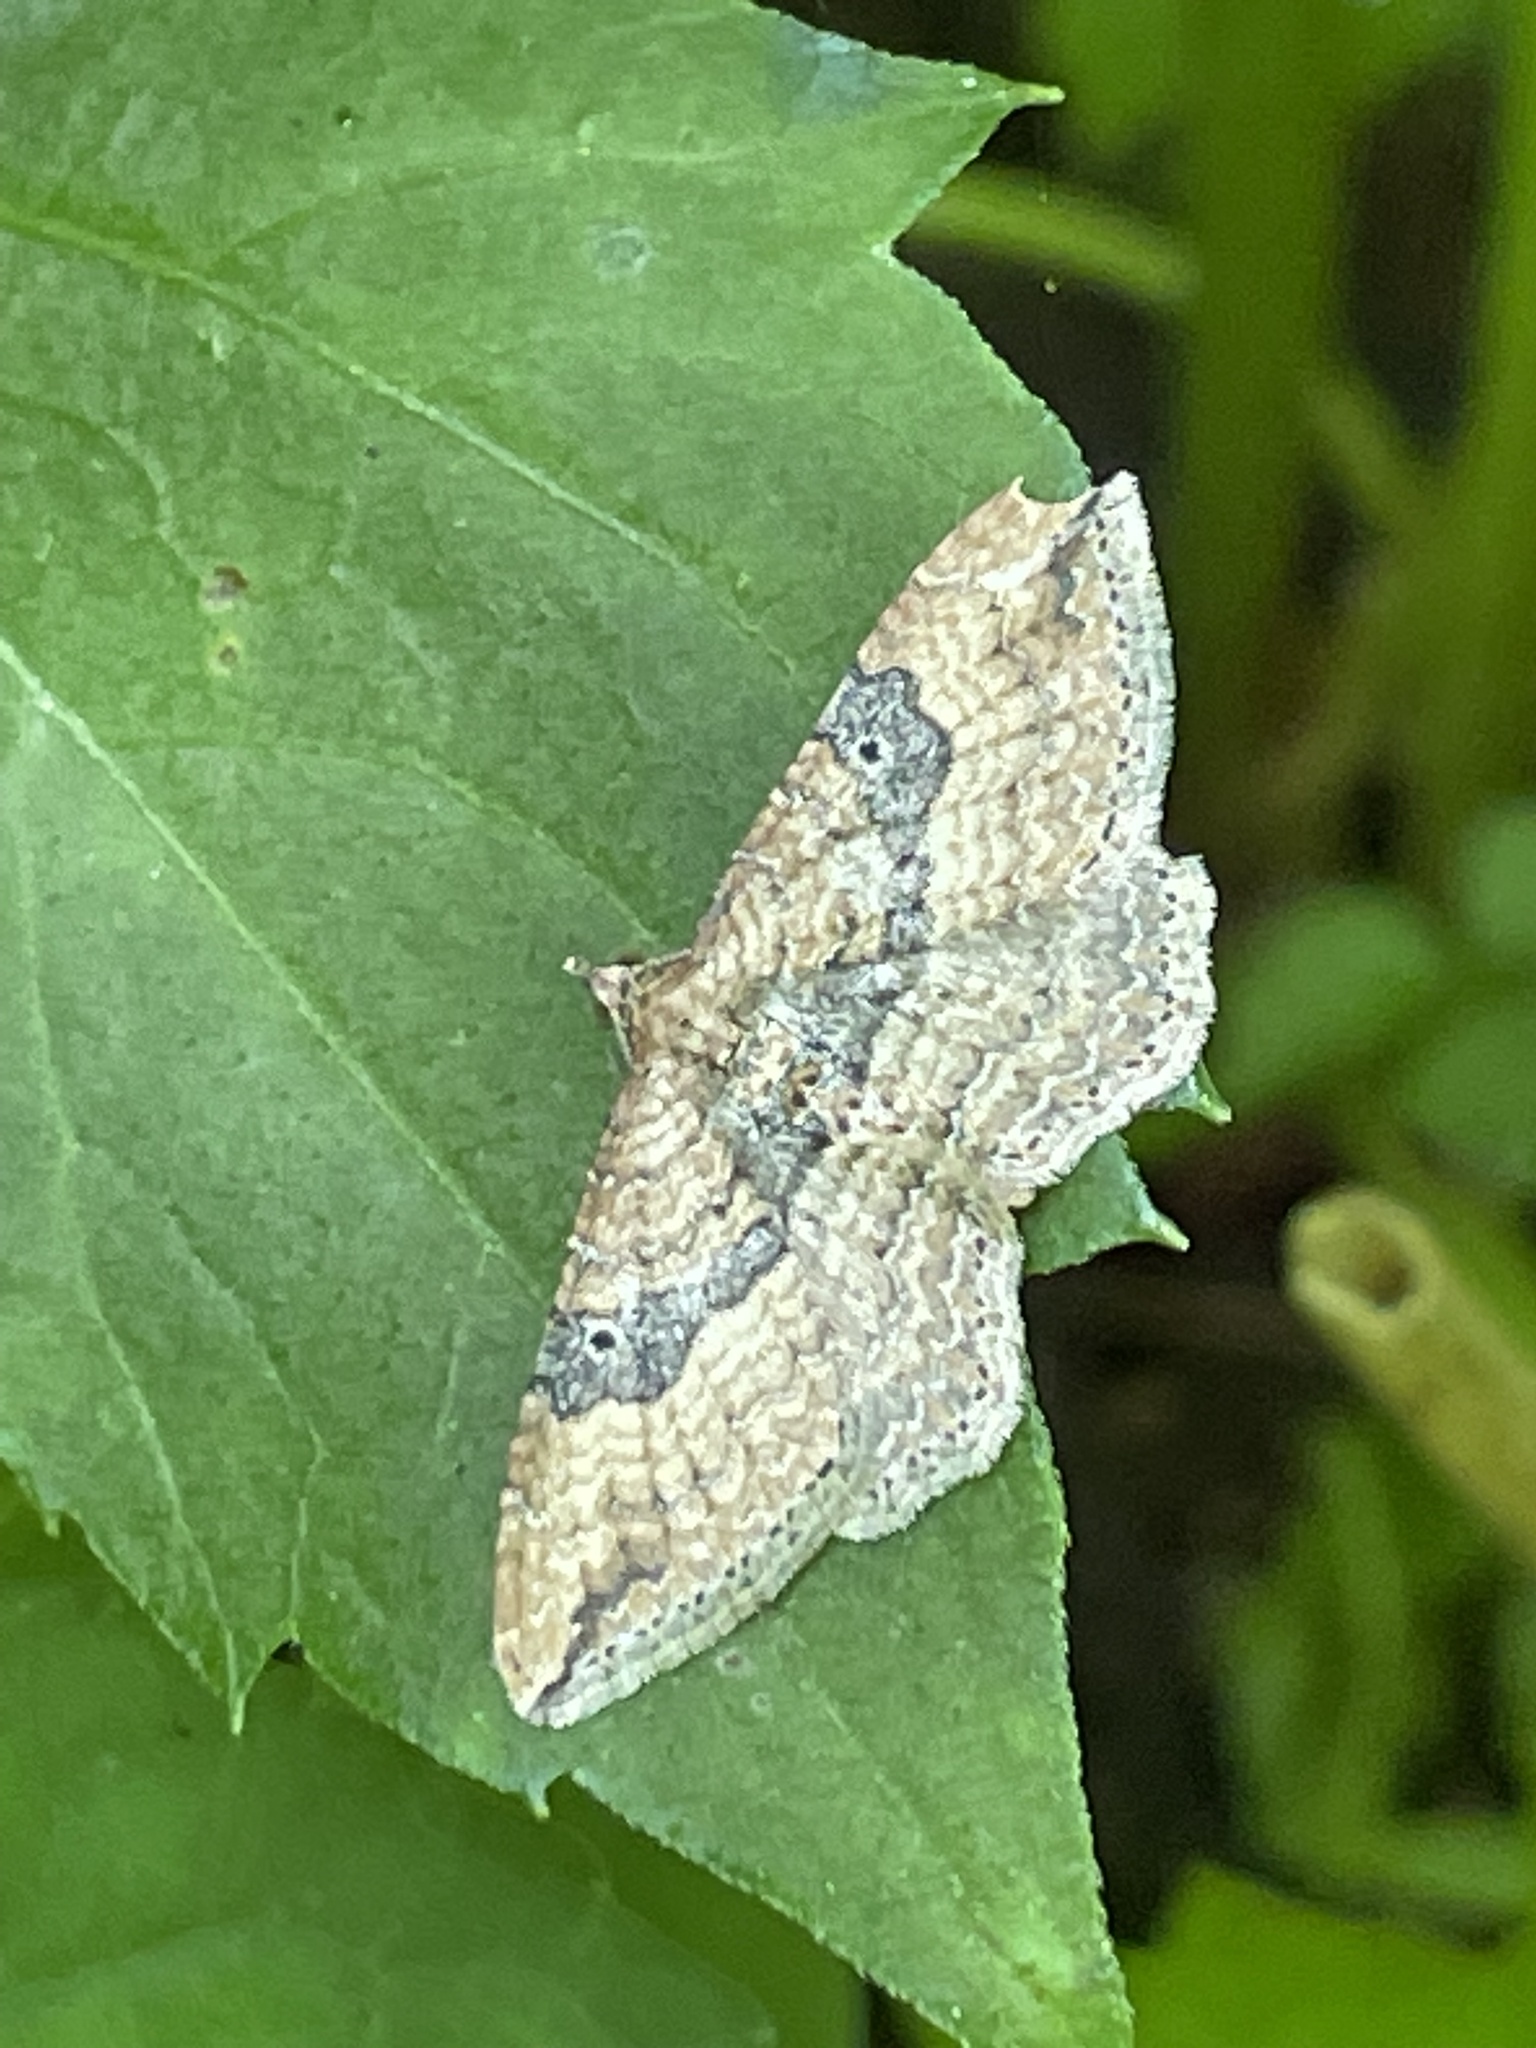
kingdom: Animalia
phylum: Arthropoda
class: Insecta
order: Lepidoptera
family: Geometridae
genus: Orthonama
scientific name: Orthonama obstipata
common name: The gem
